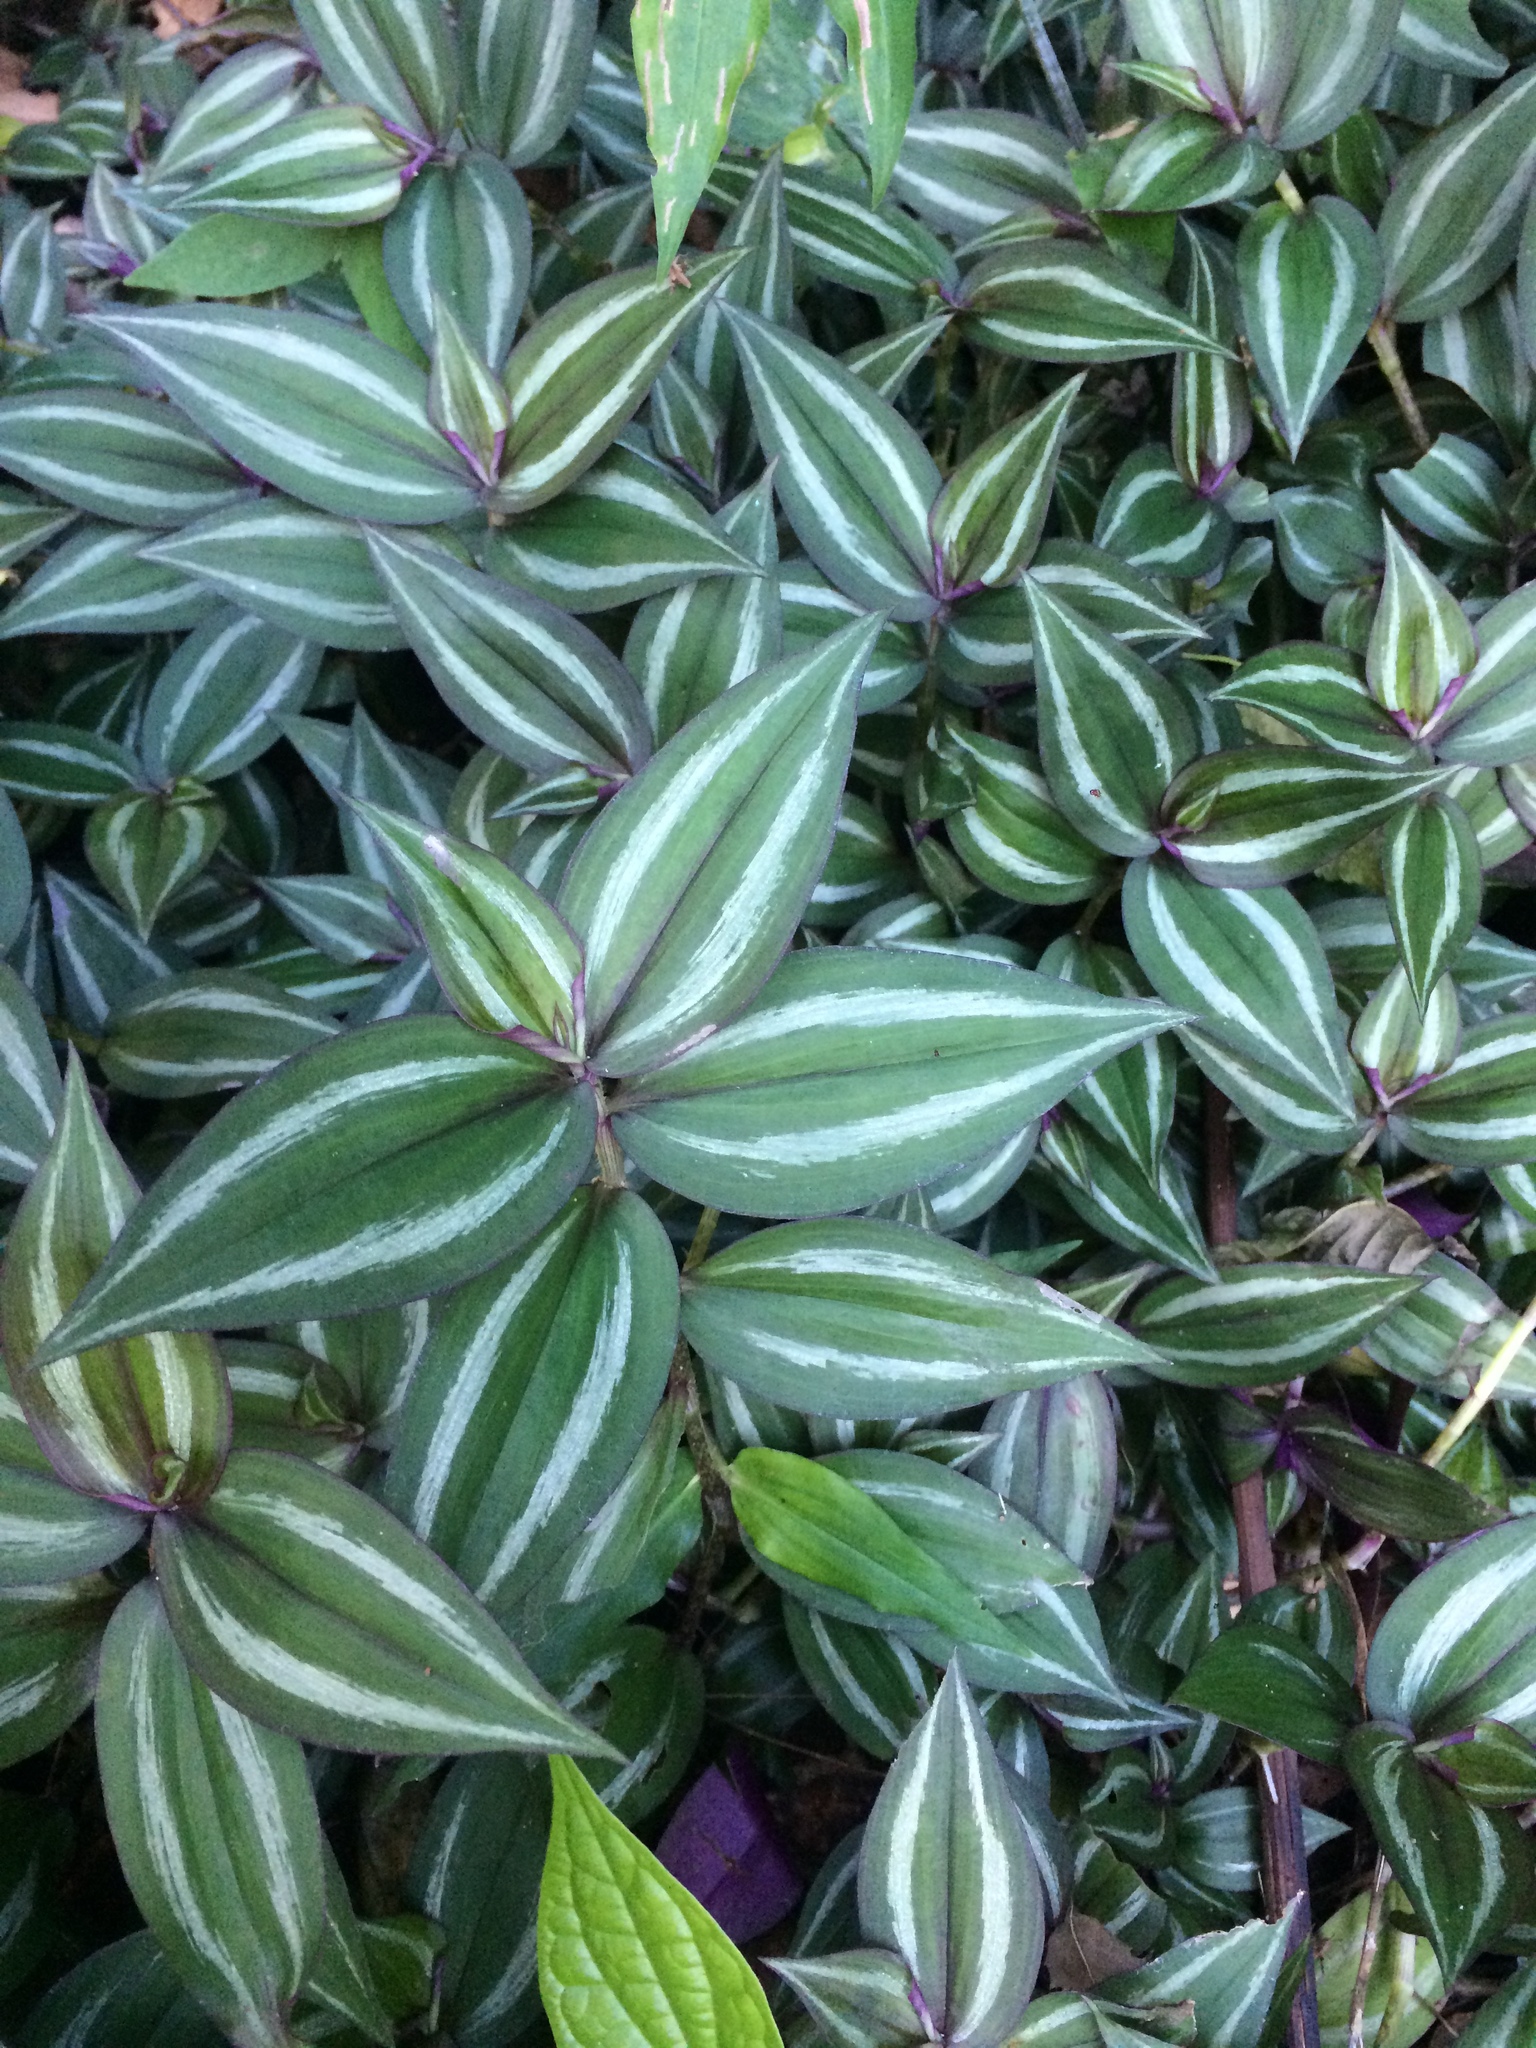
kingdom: Plantae
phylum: Tracheophyta
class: Liliopsida
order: Commelinales
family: Commelinaceae
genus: Tradescantia
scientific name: Tradescantia zebrina
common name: Inchplant
